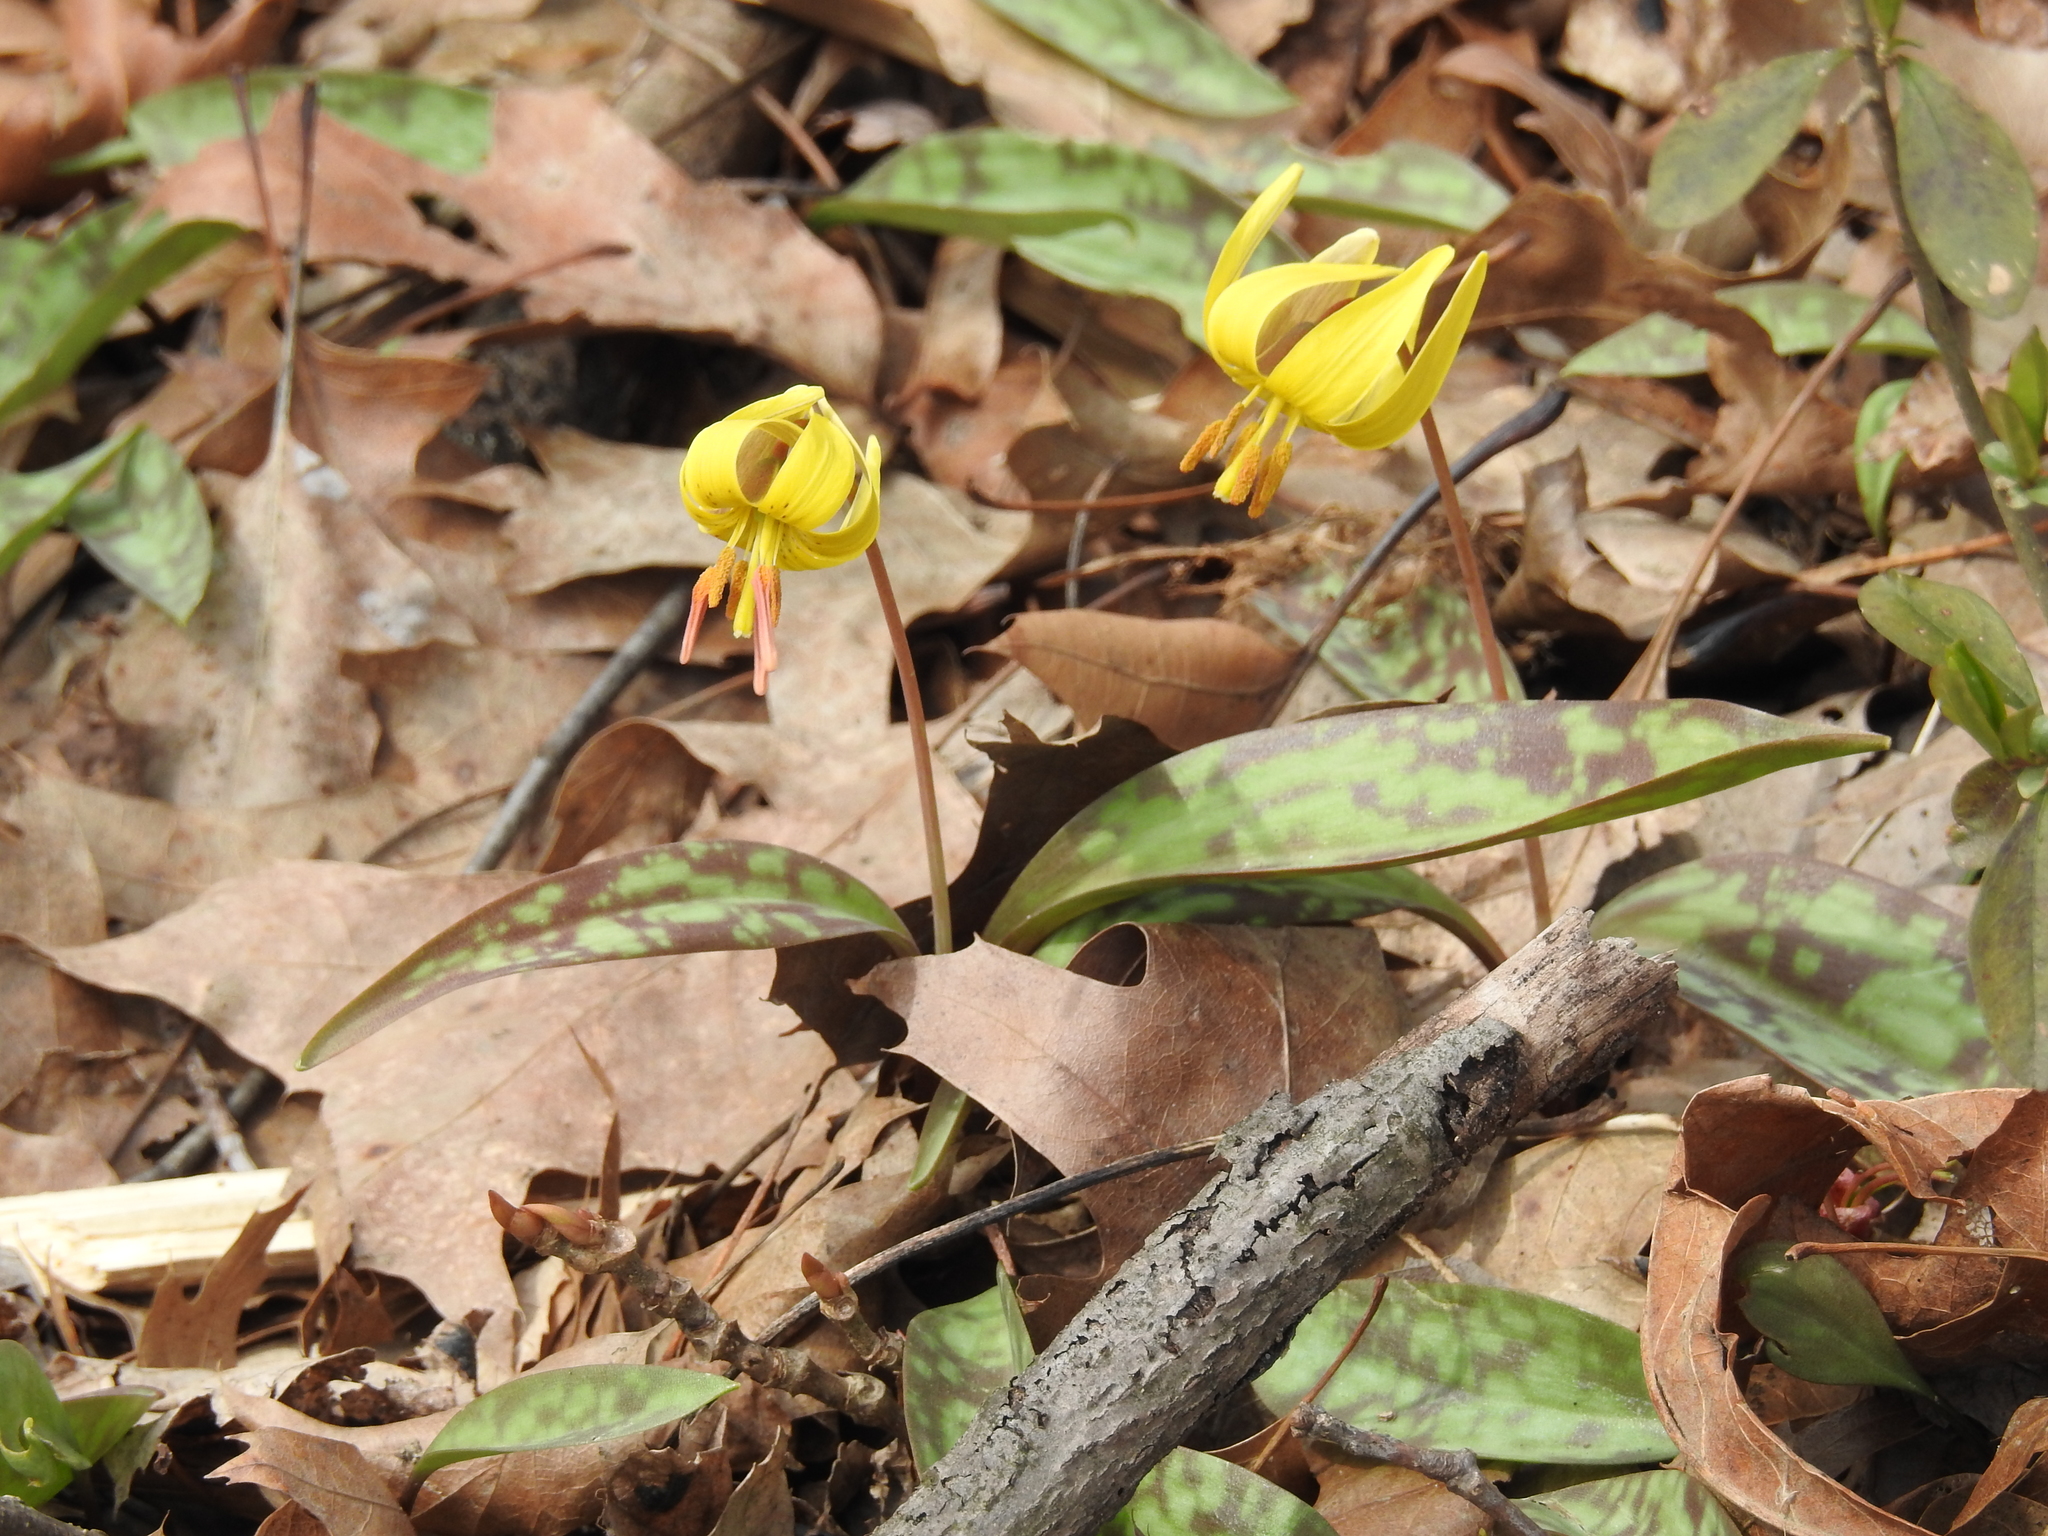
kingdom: Plantae
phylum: Tracheophyta
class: Liliopsida
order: Liliales
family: Liliaceae
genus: Erythronium
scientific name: Erythronium americanum
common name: Yellow adder's-tongue
